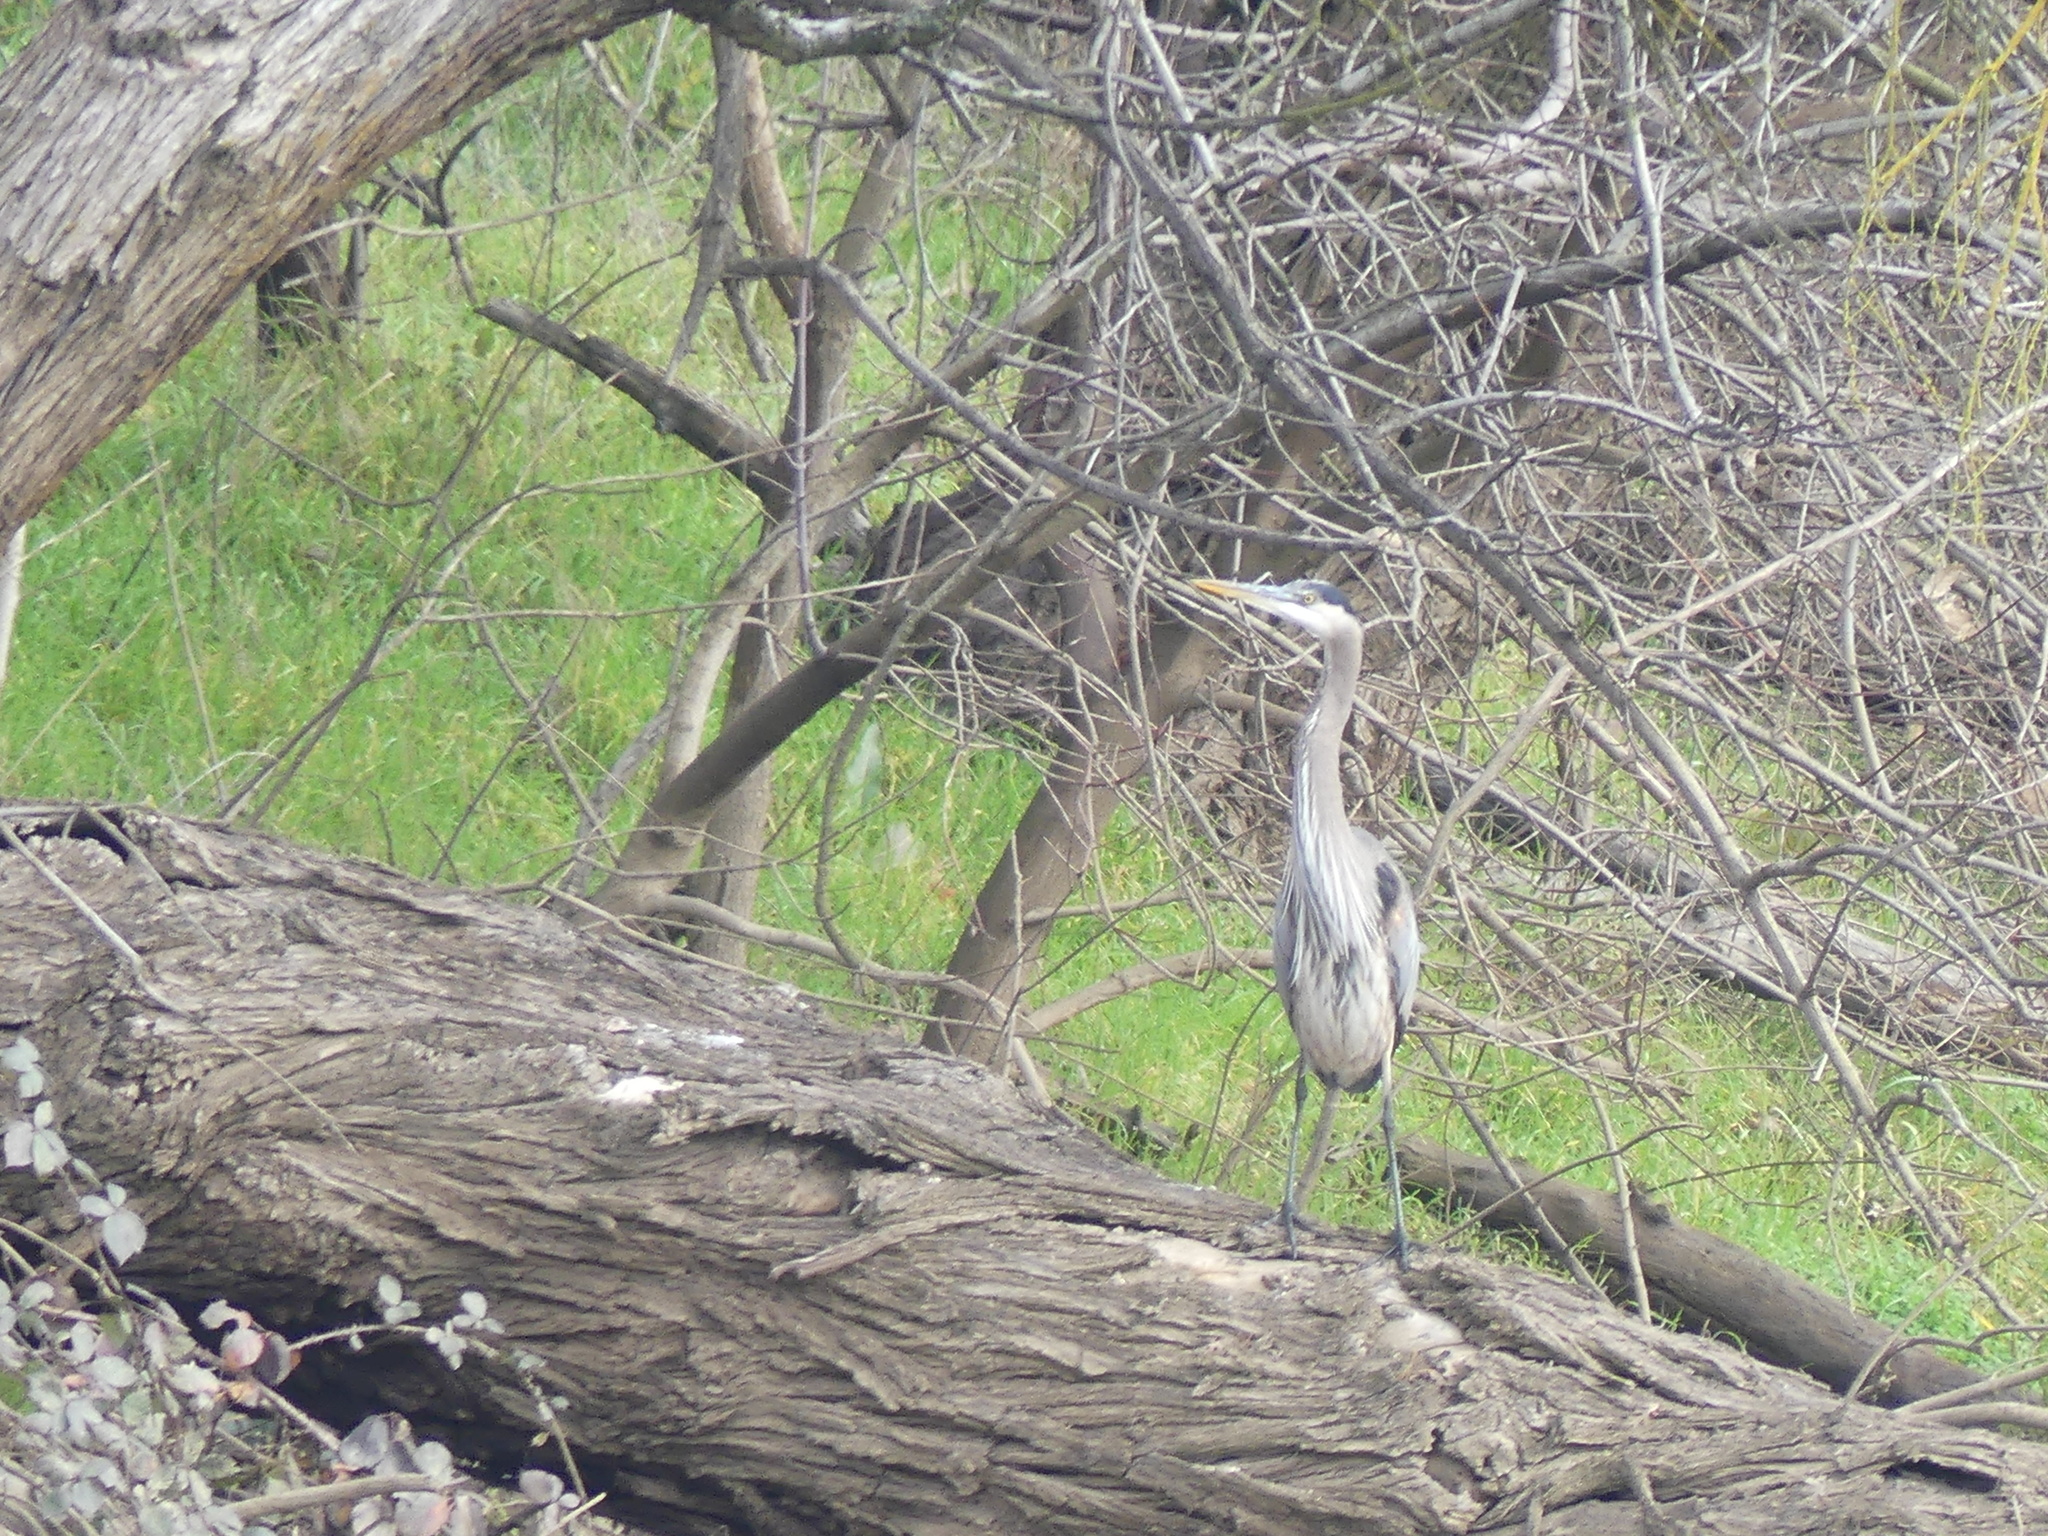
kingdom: Animalia
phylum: Chordata
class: Aves
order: Pelecaniformes
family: Ardeidae
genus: Ardea
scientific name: Ardea herodias
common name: Great blue heron
